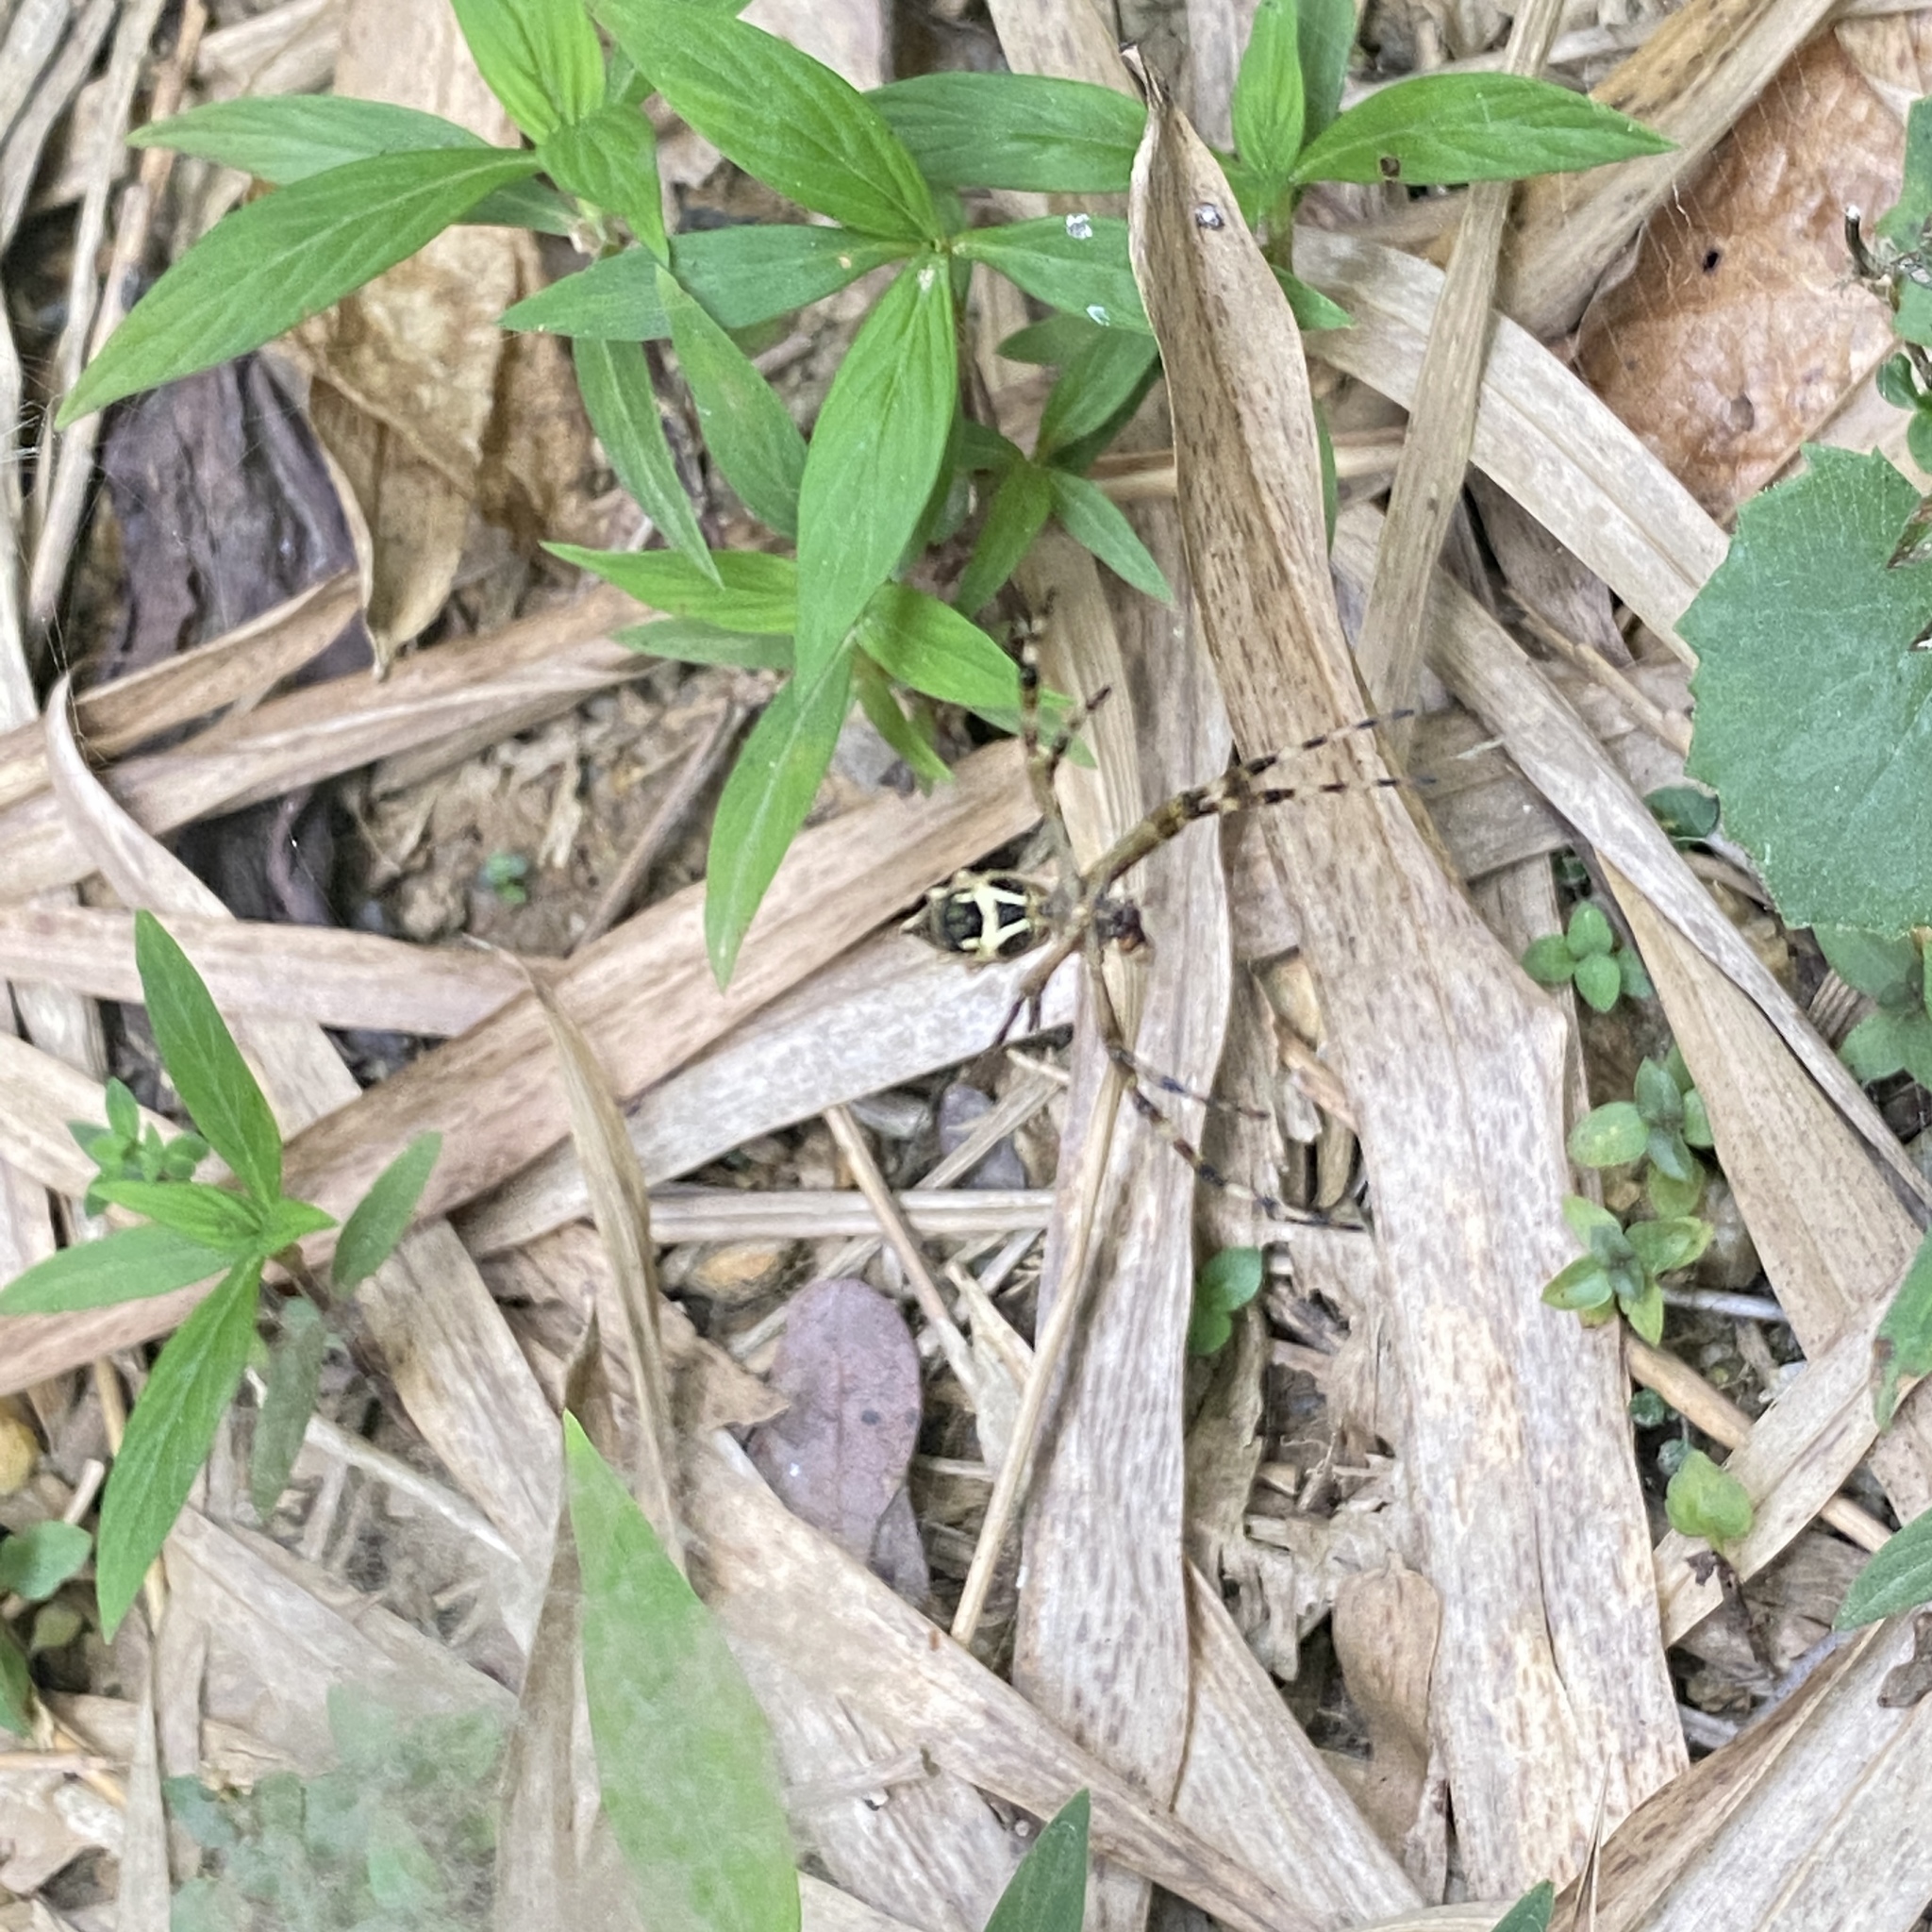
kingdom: Animalia
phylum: Arthropoda
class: Arachnida
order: Araneae
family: Araneidae
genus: Argiope
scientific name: Argiope argentata
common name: Orb weavers
